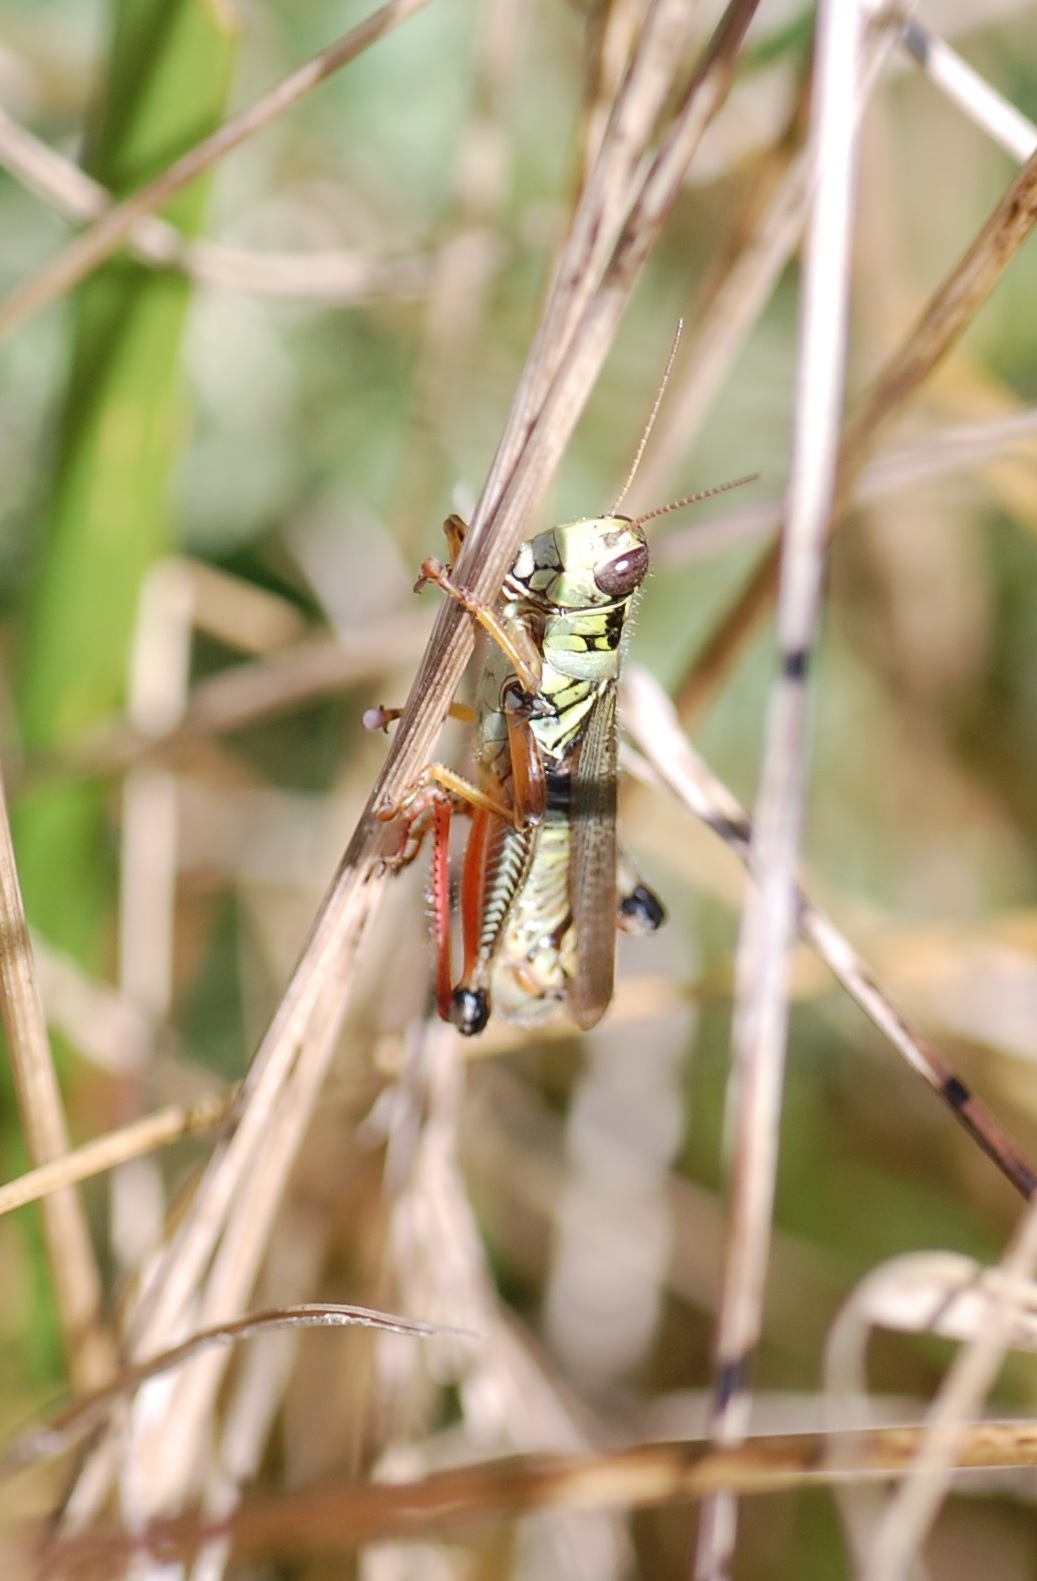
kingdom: Animalia
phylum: Arthropoda
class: Insecta
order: Orthoptera
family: Acrididae
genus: Melanoplus
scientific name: Melanoplus femurrubrum
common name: Red-legged grasshopper
